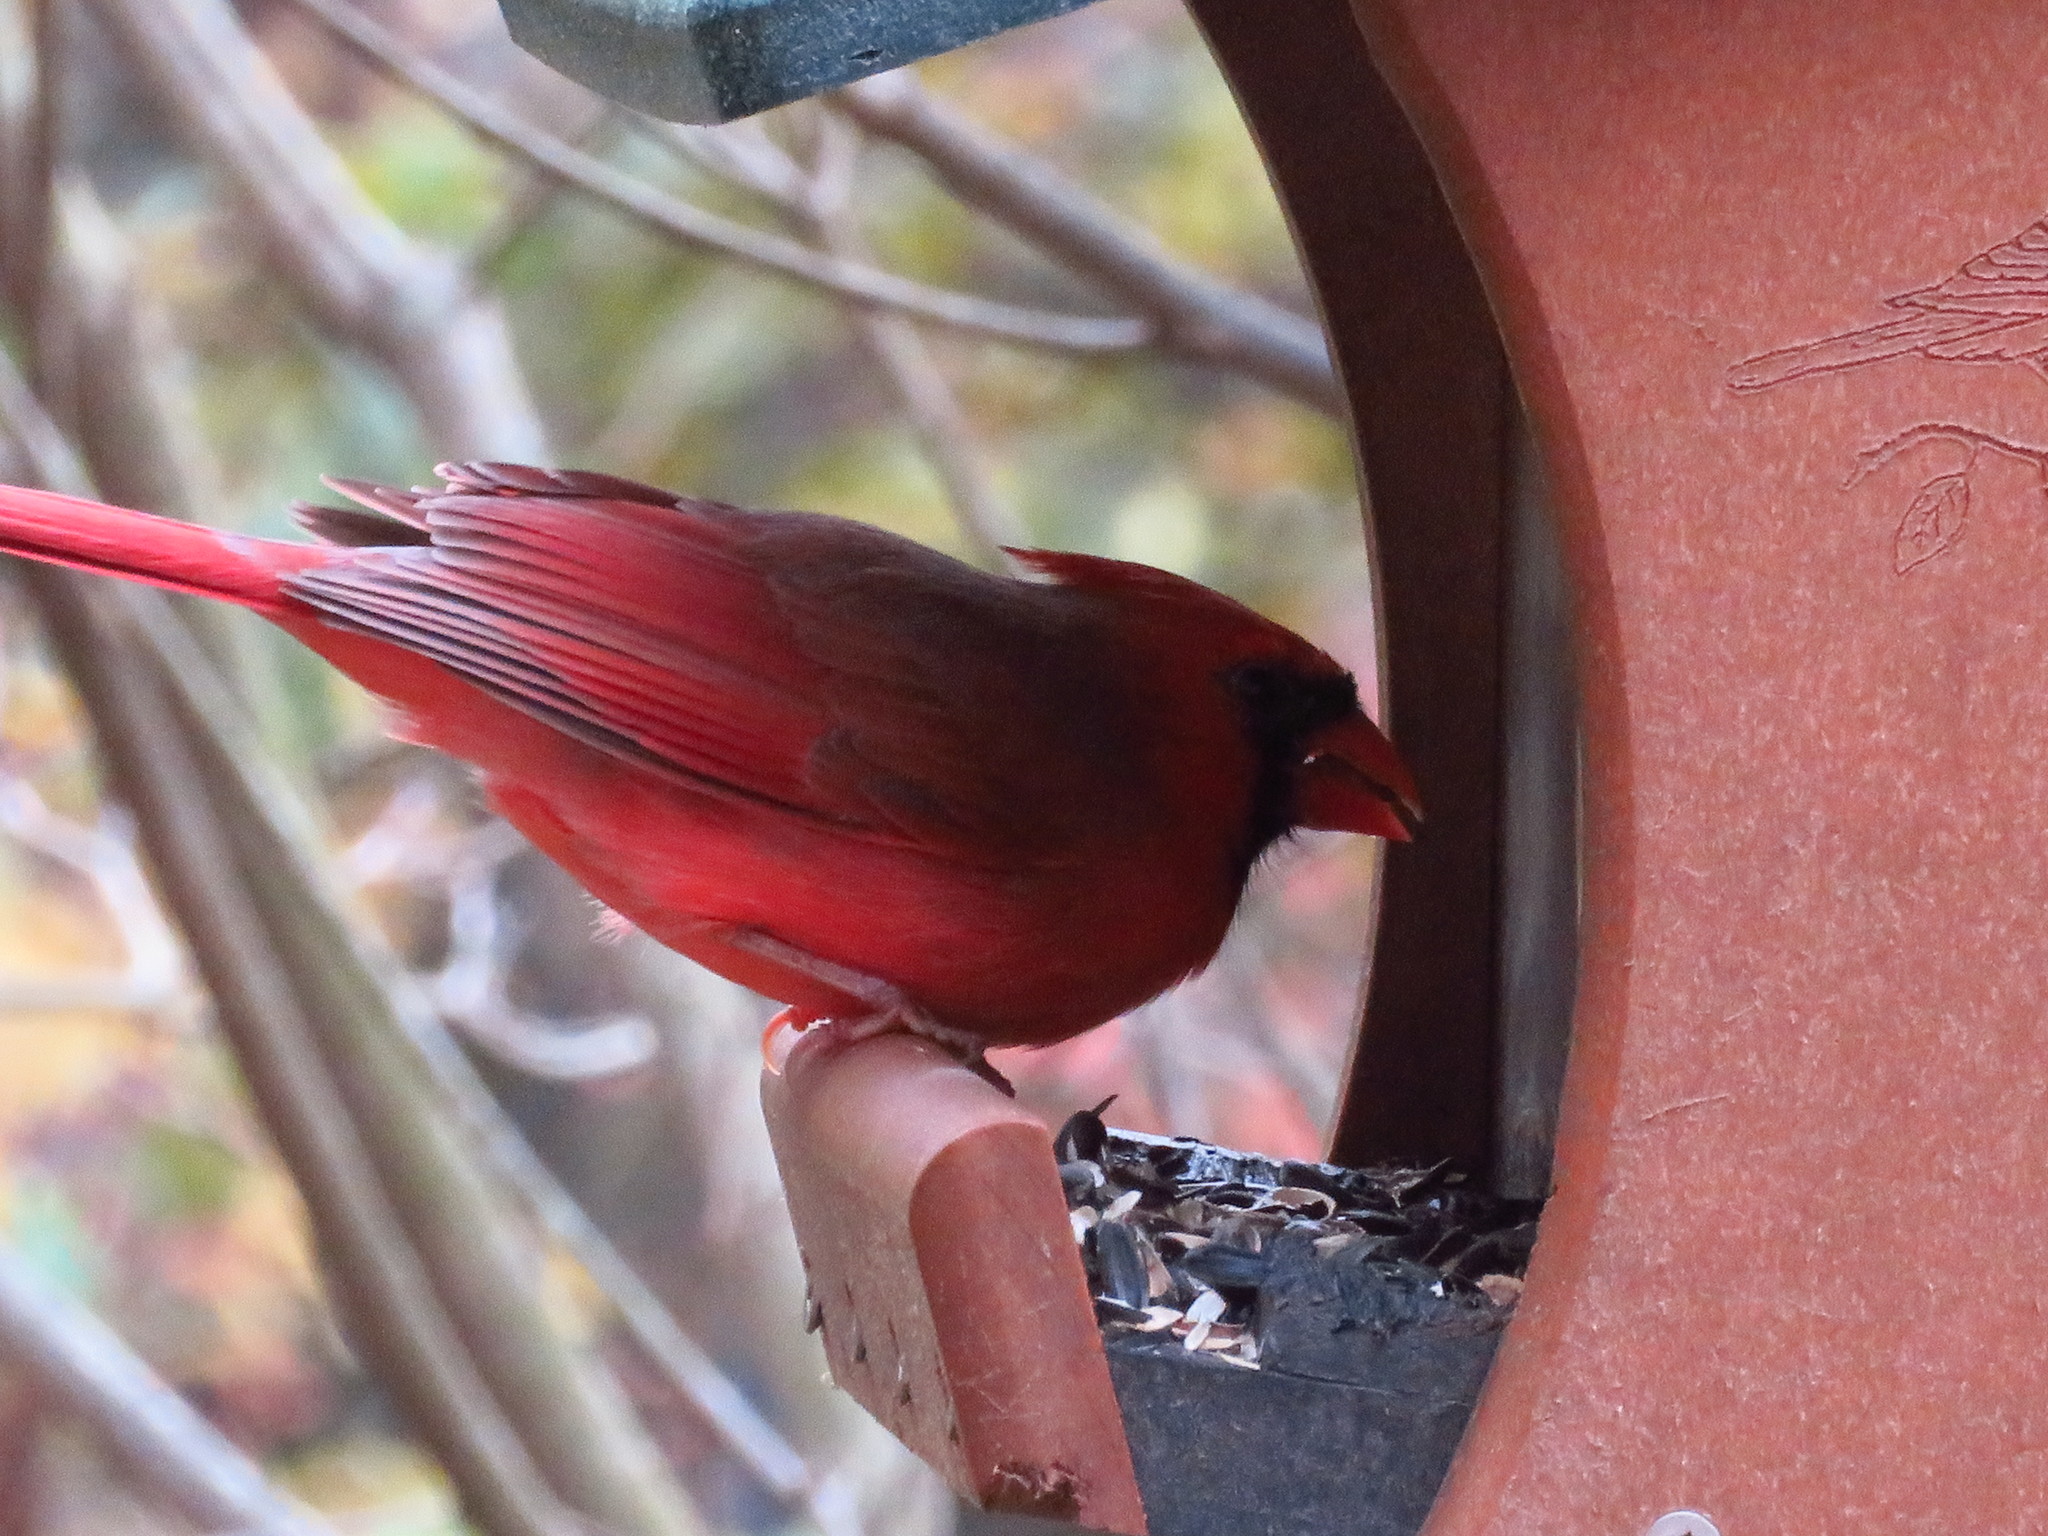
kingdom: Animalia
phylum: Chordata
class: Aves
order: Passeriformes
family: Cardinalidae
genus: Cardinalis
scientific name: Cardinalis cardinalis
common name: Northern cardinal
